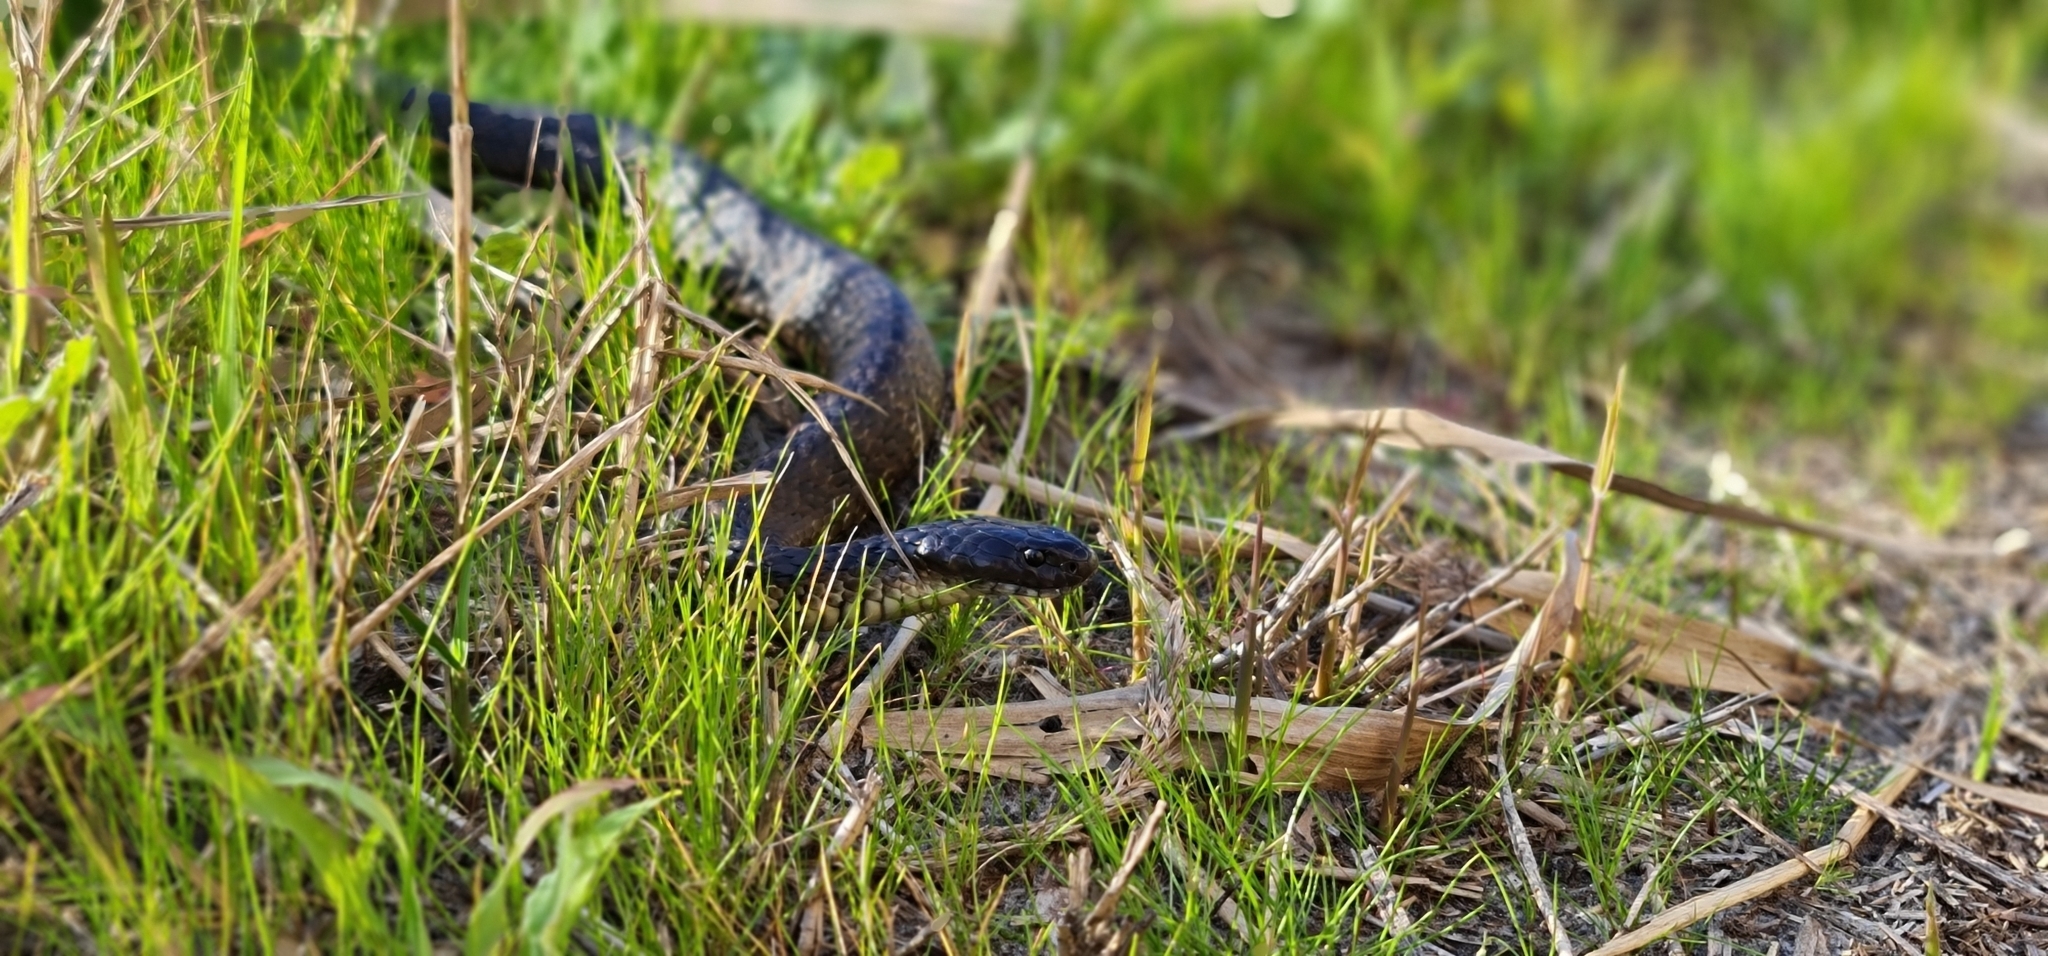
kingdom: Animalia
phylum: Chordata
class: Squamata
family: Elapidae
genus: Notechis
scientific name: Notechis scutatus
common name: Mainland tiger snake
